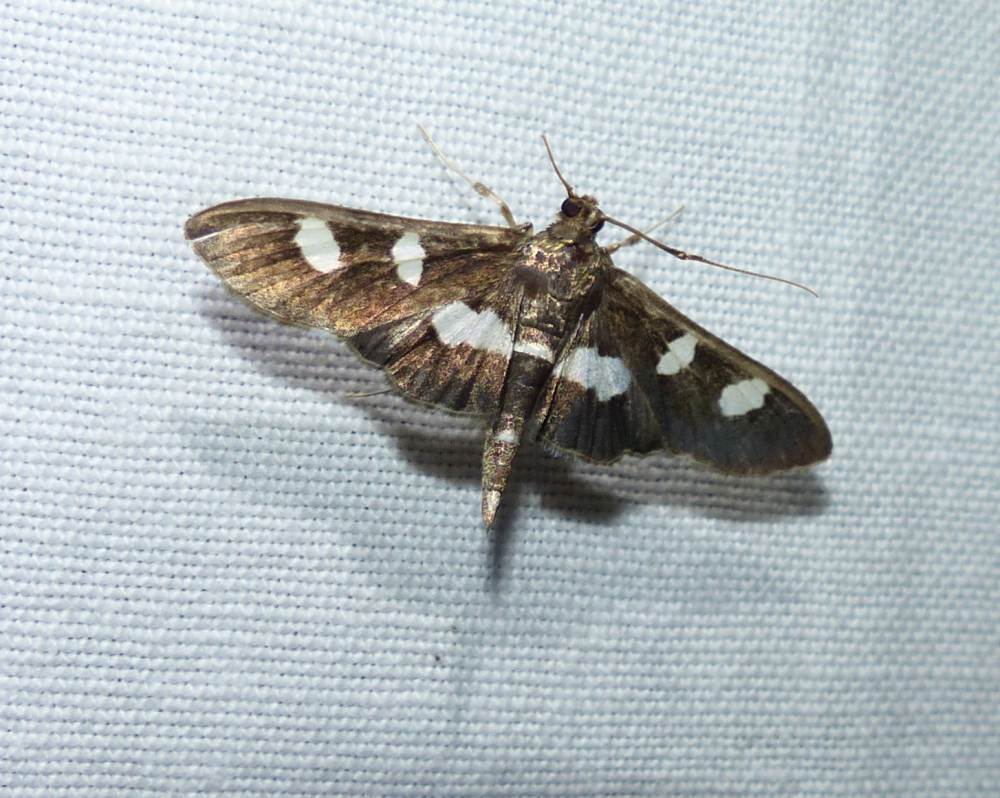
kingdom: Animalia
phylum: Arthropoda
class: Insecta
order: Lepidoptera
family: Crambidae
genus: Desmia
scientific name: Desmia
